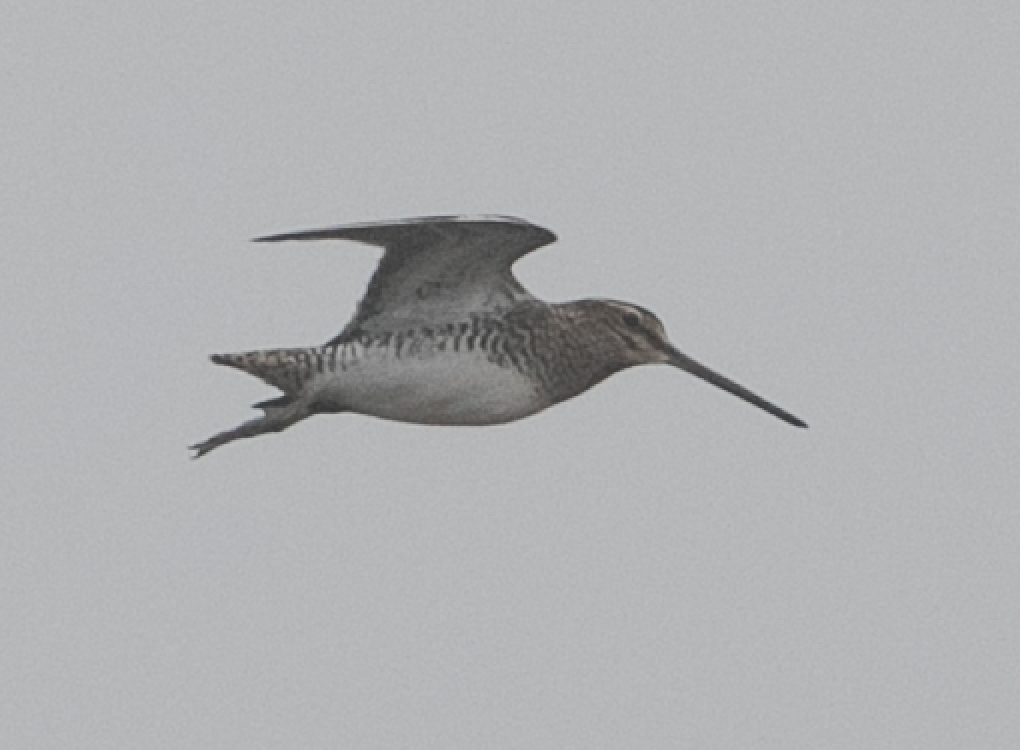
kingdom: Animalia
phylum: Chordata
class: Aves
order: Charadriiformes
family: Scolopacidae
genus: Gallinago
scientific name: Gallinago gallinago
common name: Common snipe
